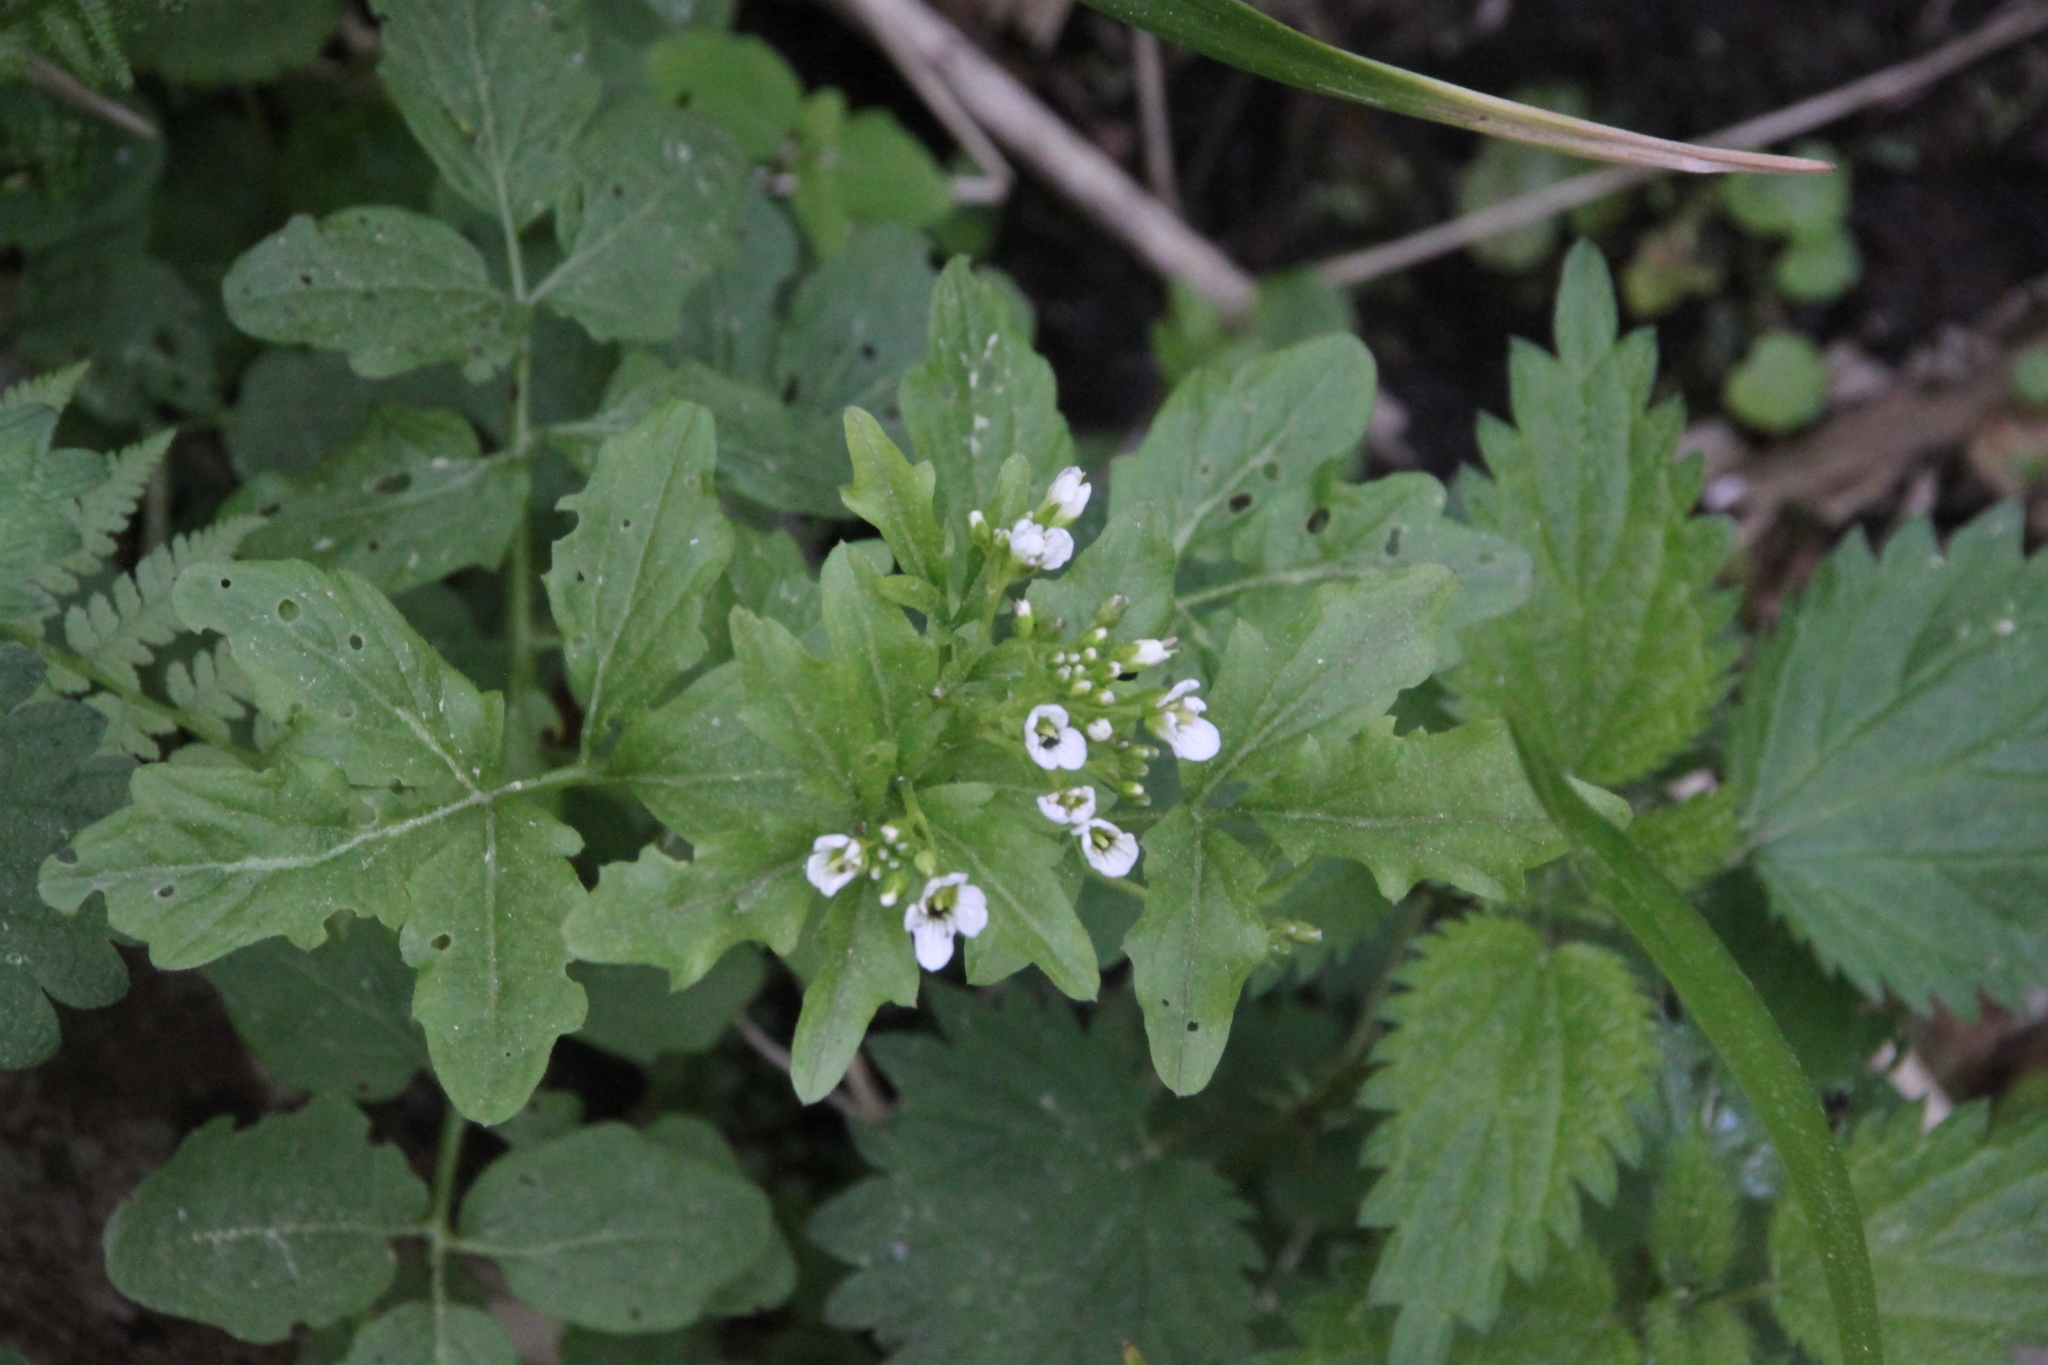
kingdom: Plantae
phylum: Tracheophyta
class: Magnoliopsida
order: Brassicales
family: Brassicaceae
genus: Cardamine
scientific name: Cardamine amara
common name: Large bitter-cress
